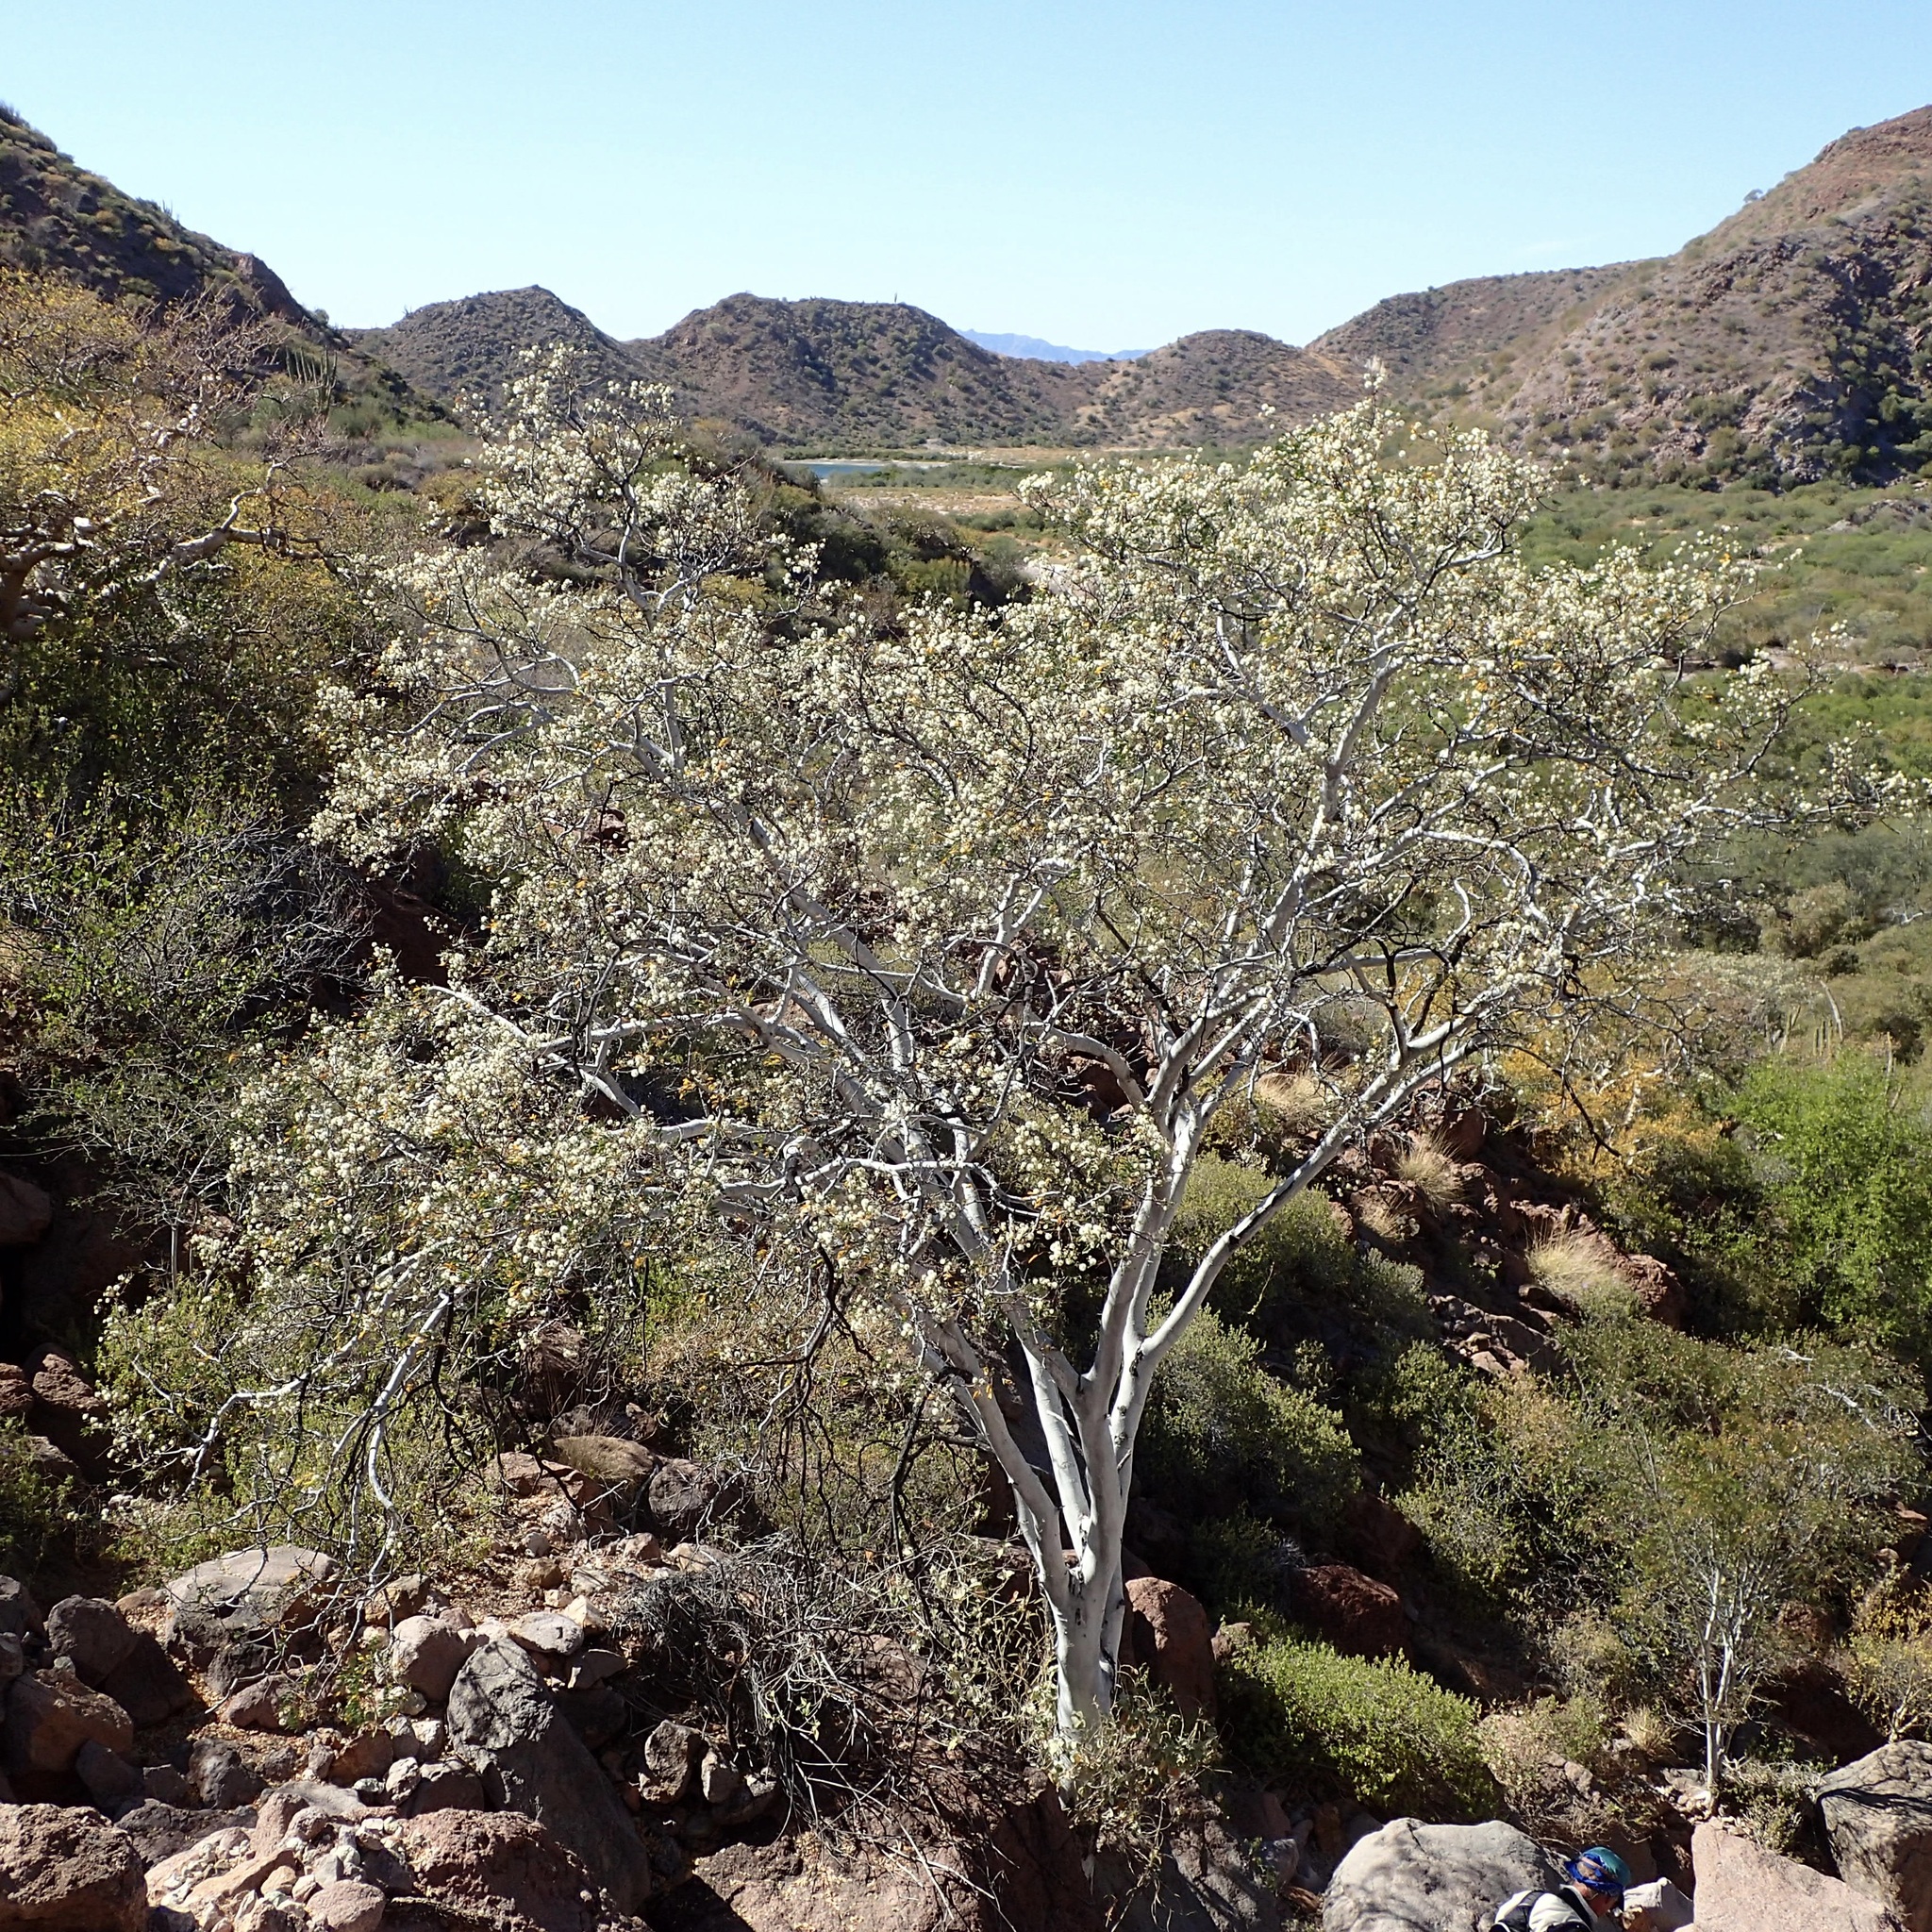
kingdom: Plantae
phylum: Tracheophyta
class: Magnoliopsida
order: Fabales
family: Fabaceae
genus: Lysiloma
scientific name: Lysiloma candidum
